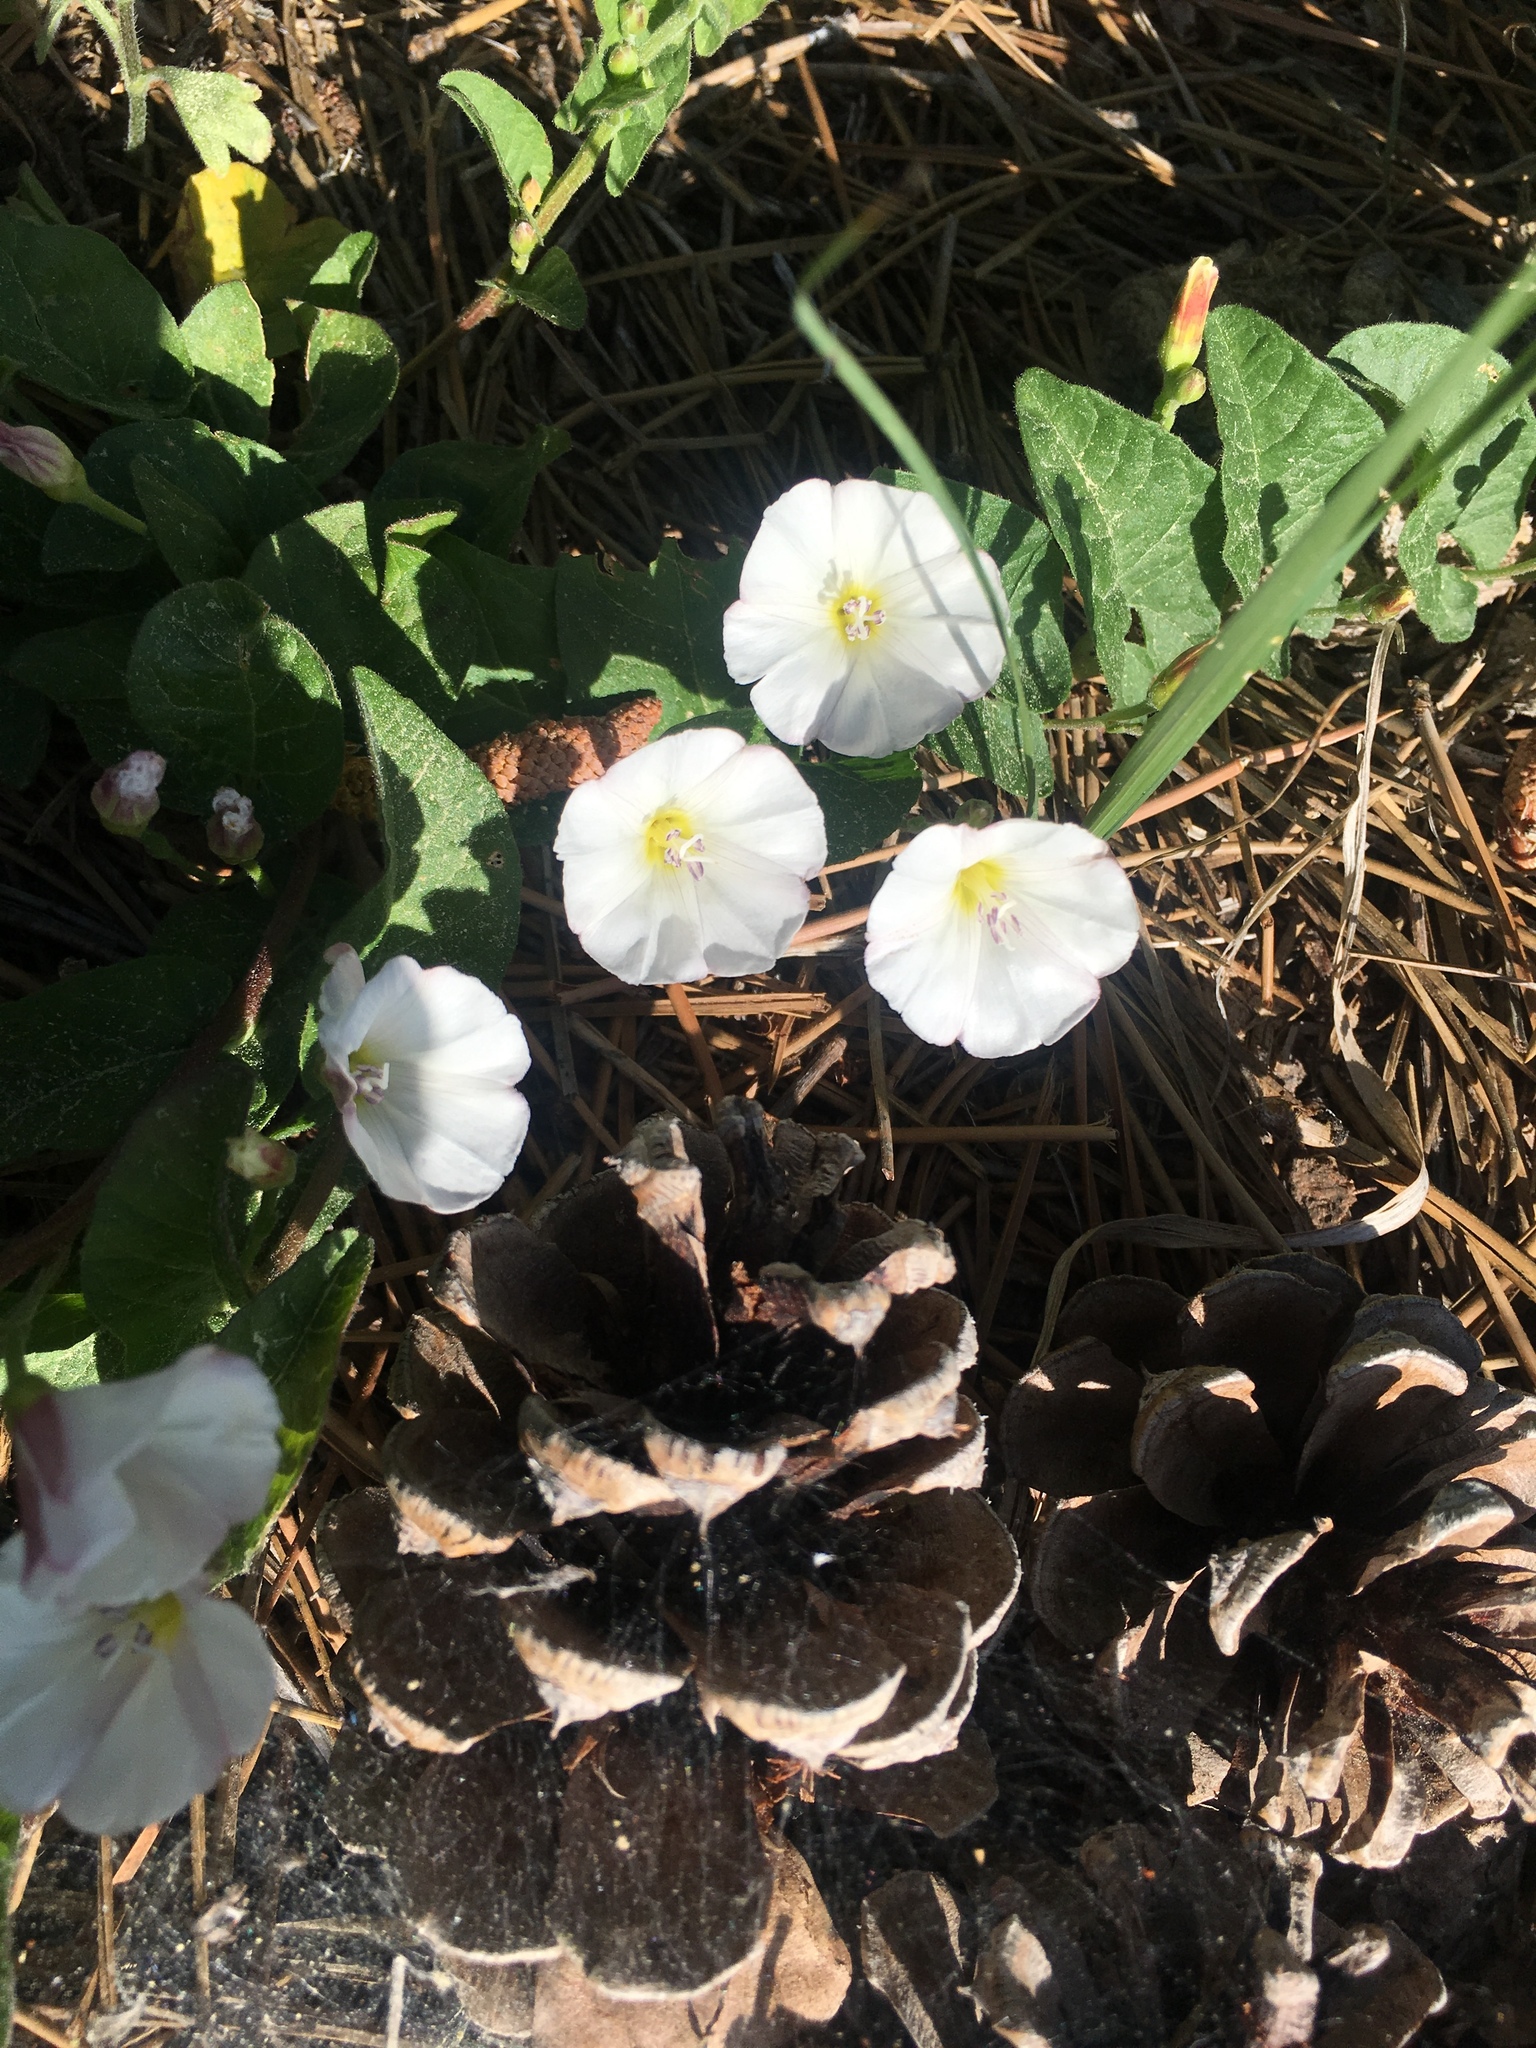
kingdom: Plantae
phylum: Tracheophyta
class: Magnoliopsida
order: Solanales
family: Convolvulaceae
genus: Convolvulus
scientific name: Convolvulus arvensis
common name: Field bindweed
